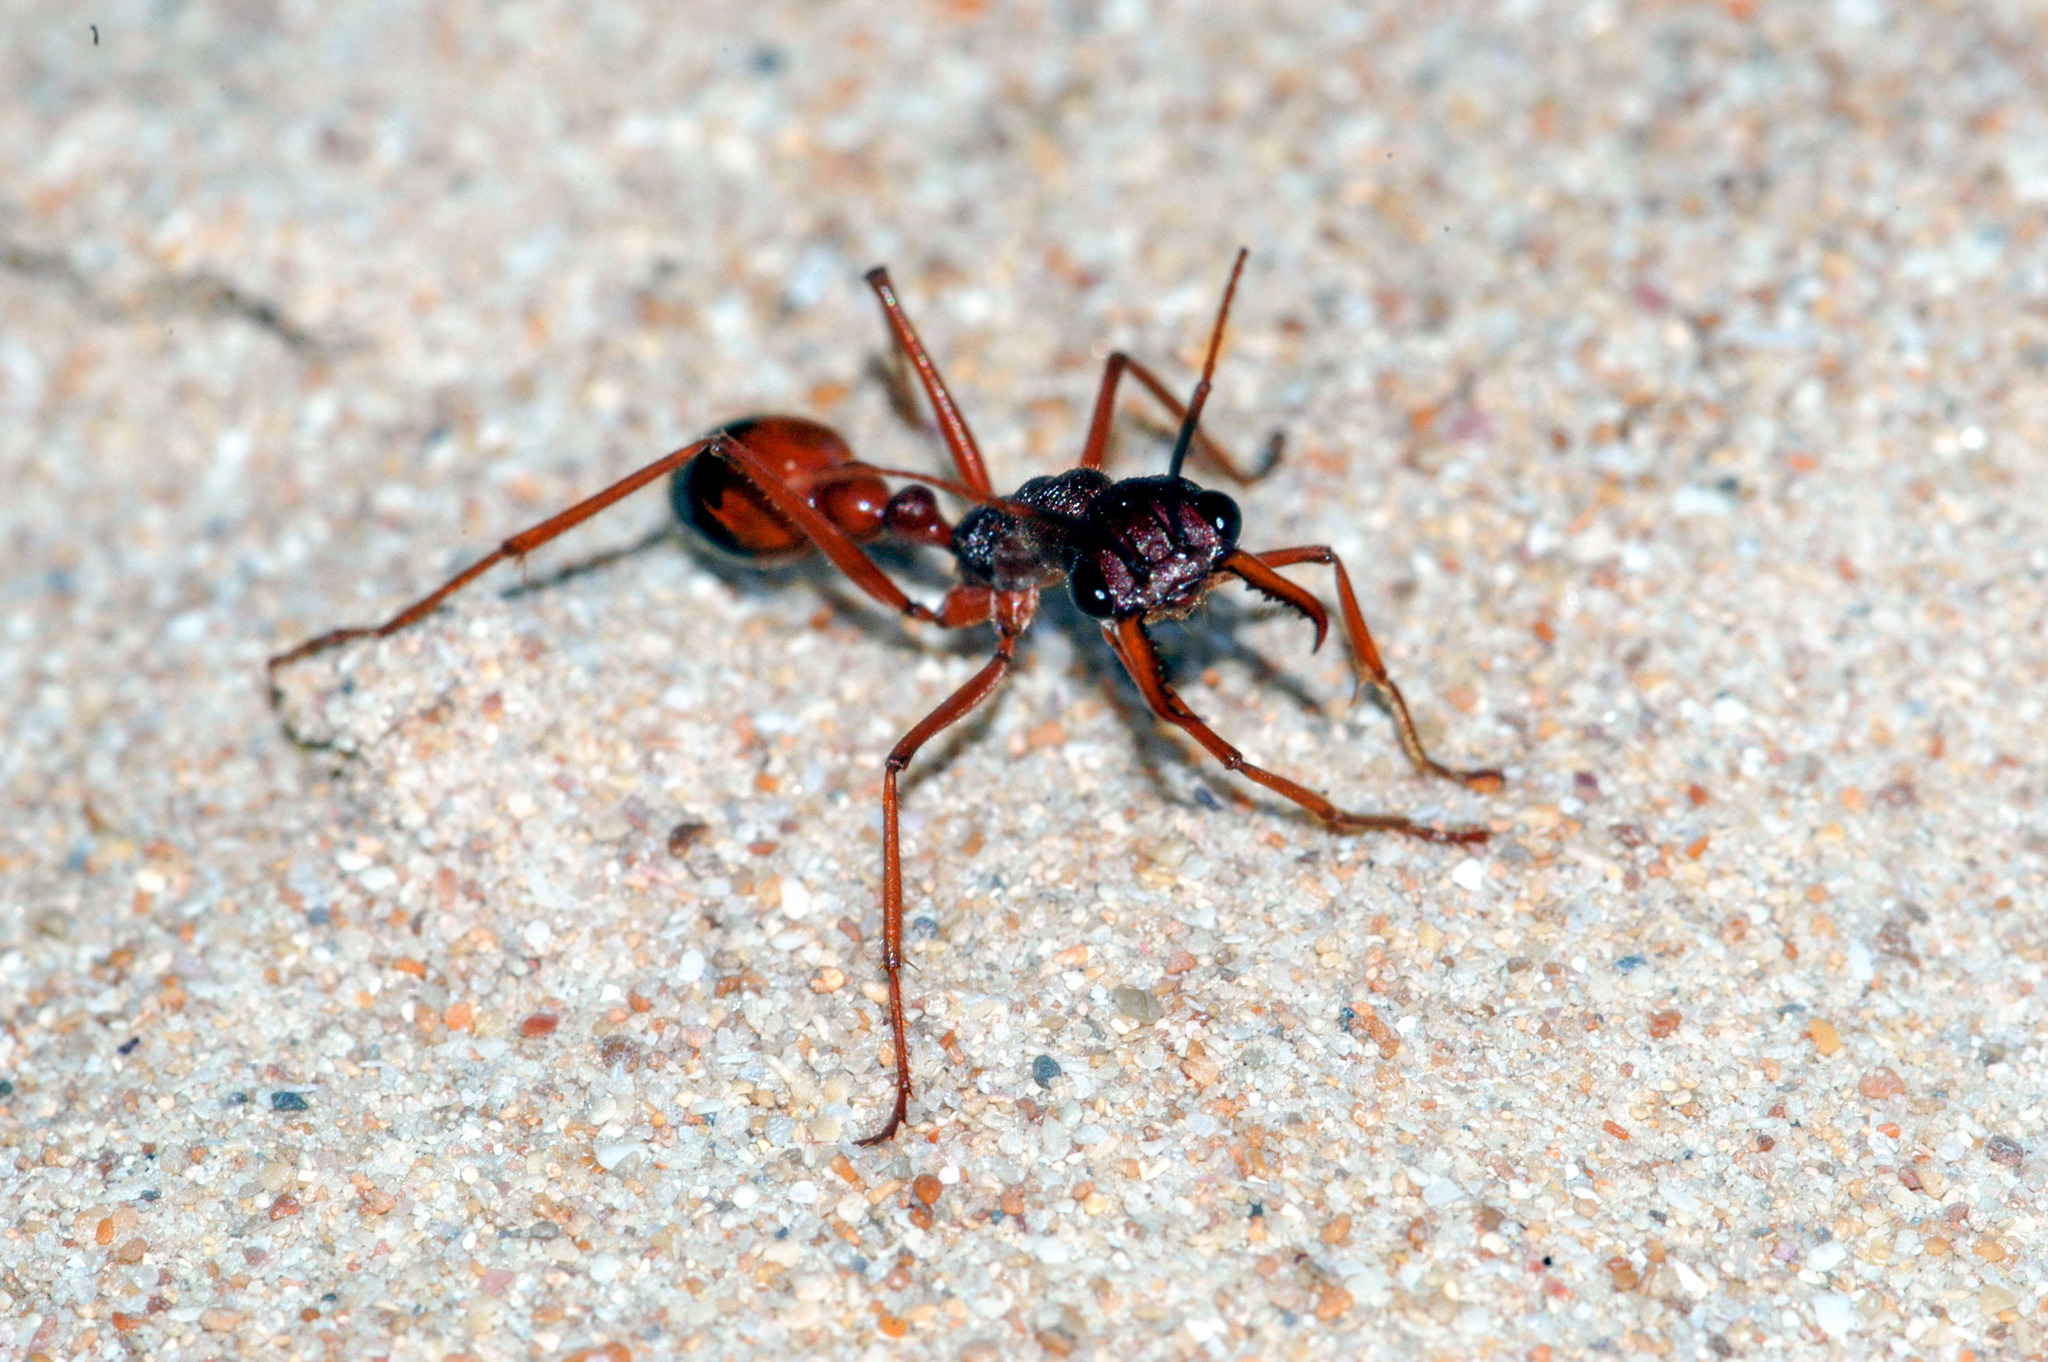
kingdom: Animalia
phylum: Arthropoda
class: Insecta
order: Hymenoptera
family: Formicidae
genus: Myrmecia
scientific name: Myrmecia nigriscapa
